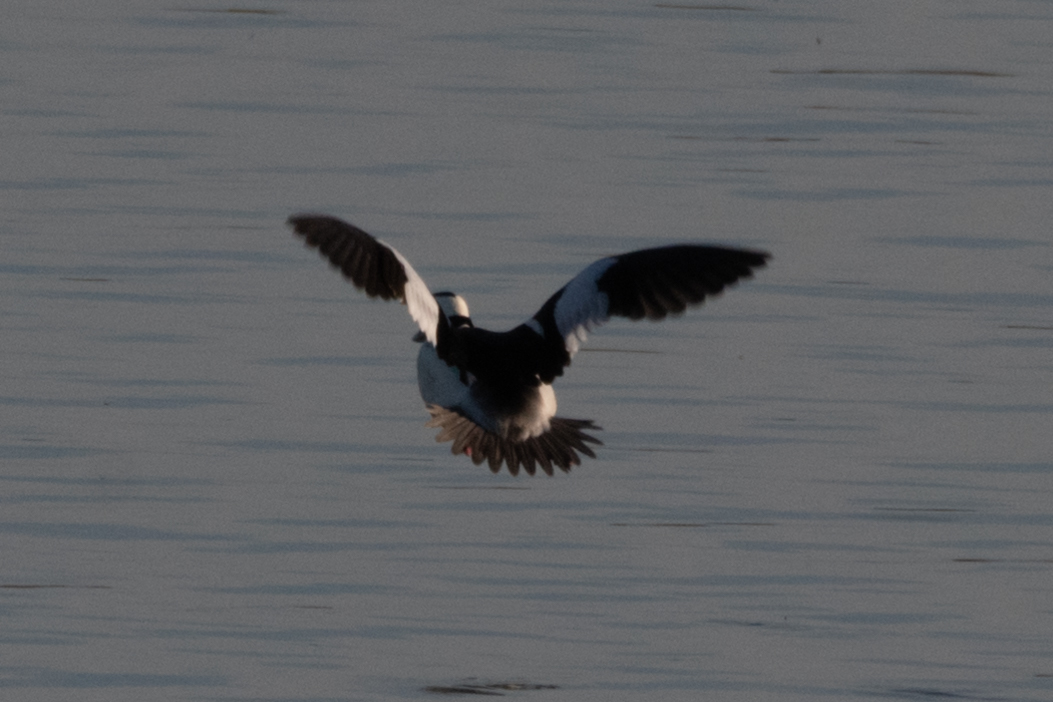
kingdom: Animalia
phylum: Chordata
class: Aves
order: Anseriformes
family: Anatidae
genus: Bucephala
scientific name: Bucephala albeola
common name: Bufflehead
